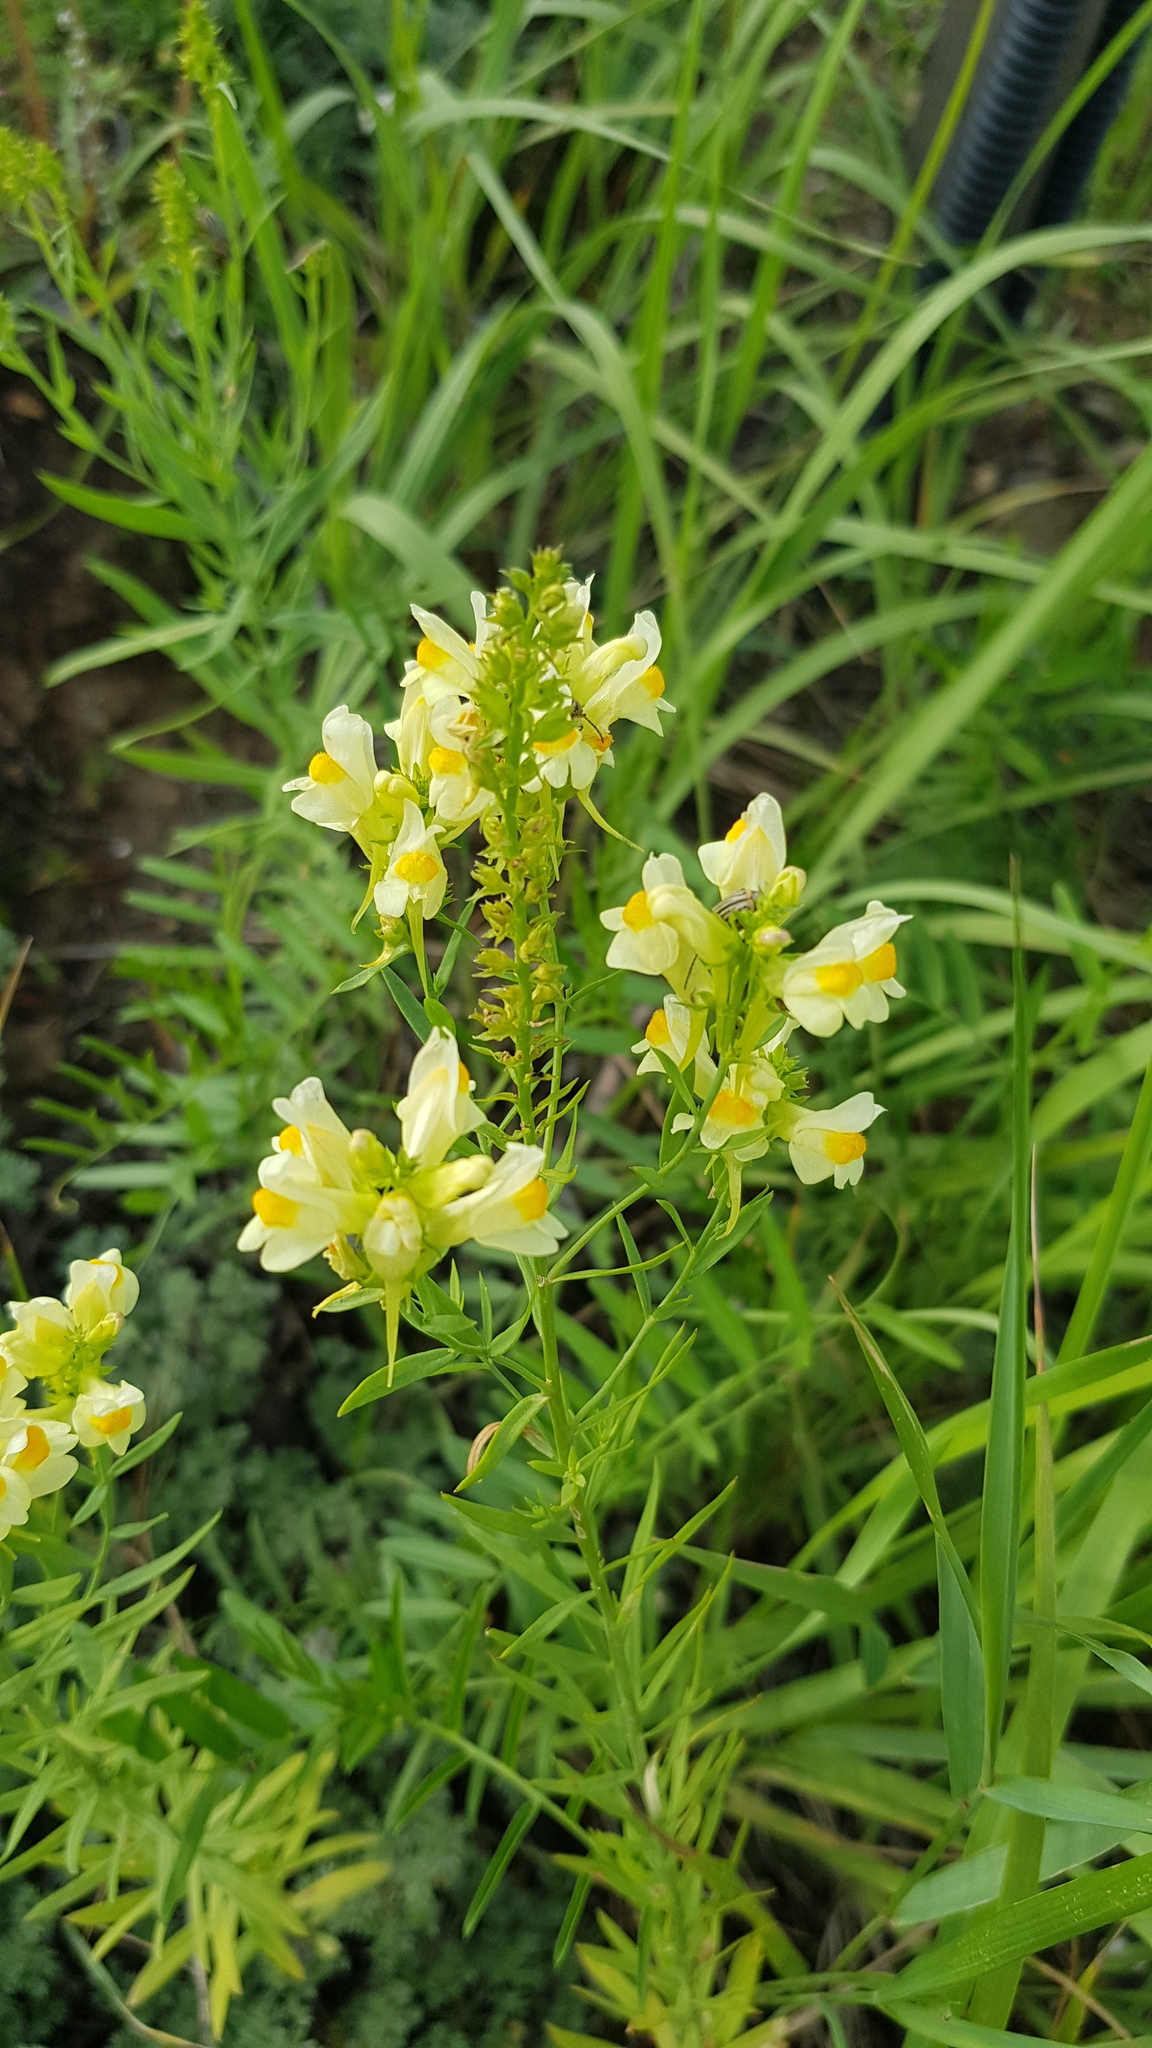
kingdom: Plantae
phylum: Tracheophyta
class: Magnoliopsida
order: Lamiales
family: Plantaginaceae
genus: Linaria
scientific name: Linaria vulgaris
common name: Butter and eggs
